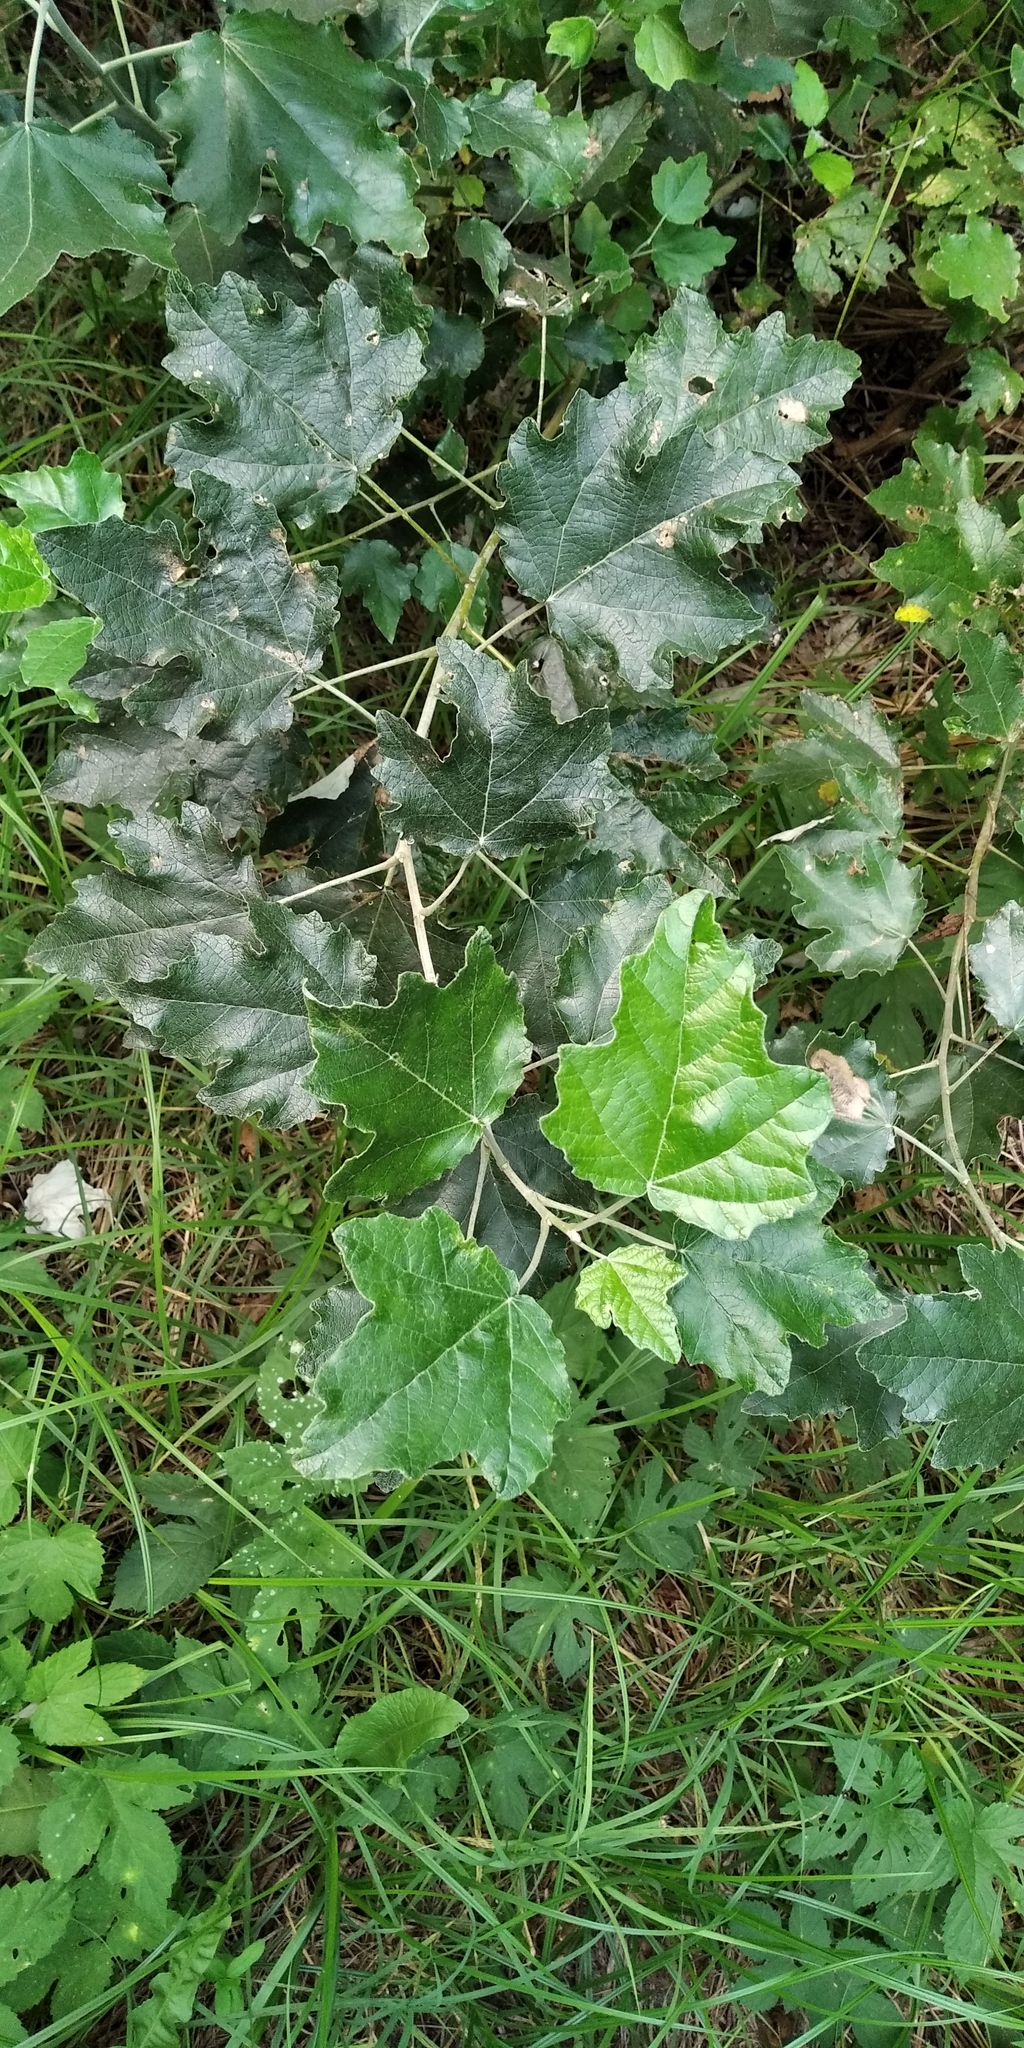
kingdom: Plantae
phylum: Tracheophyta
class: Magnoliopsida
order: Malpighiales
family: Salicaceae
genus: Populus
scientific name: Populus alba
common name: White poplar
